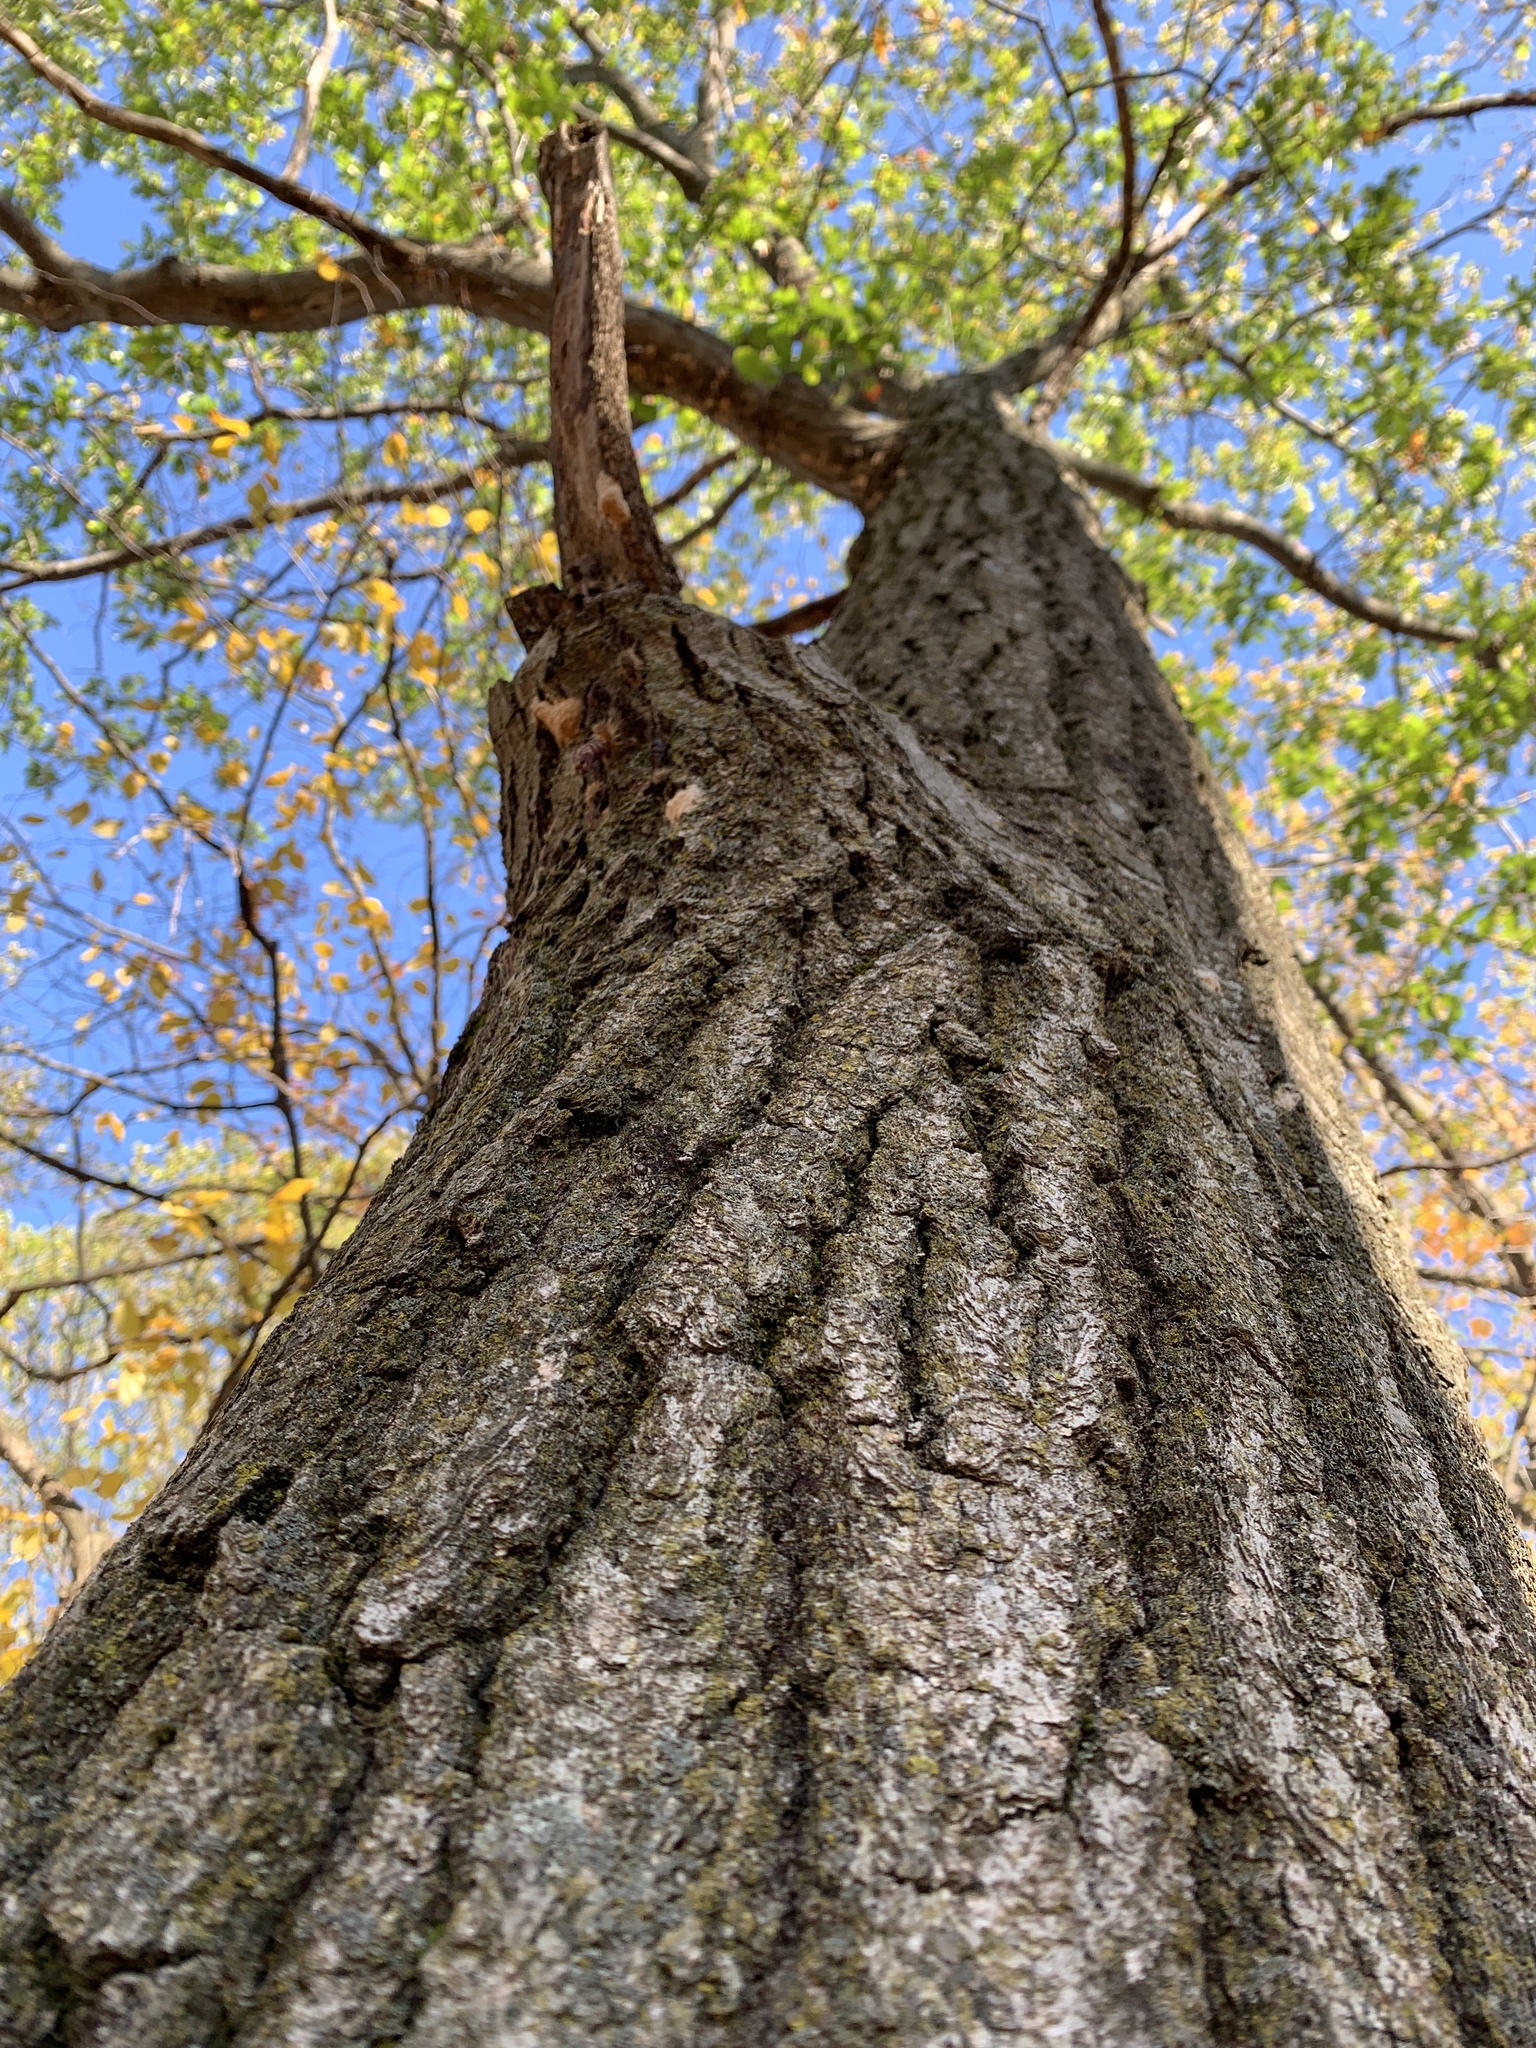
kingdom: Plantae
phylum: Tracheophyta
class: Magnoliopsida
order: Fagales
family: Fagaceae
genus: Quercus
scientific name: Quercus rubra
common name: Red oak
